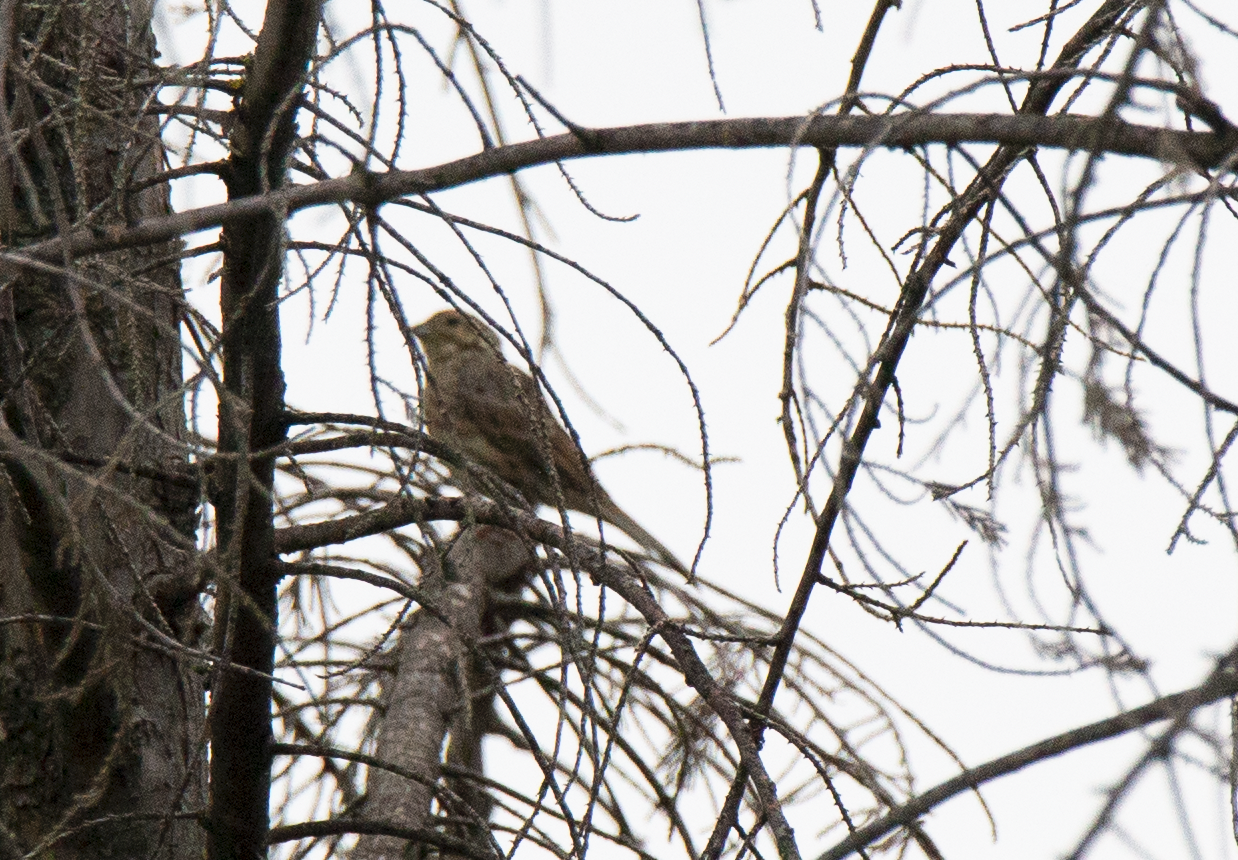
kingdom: Animalia
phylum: Chordata
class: Aves
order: Passeriformes
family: Emberizidae
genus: Emberiza
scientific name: Emberiza citrinella
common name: Yellowhammer
